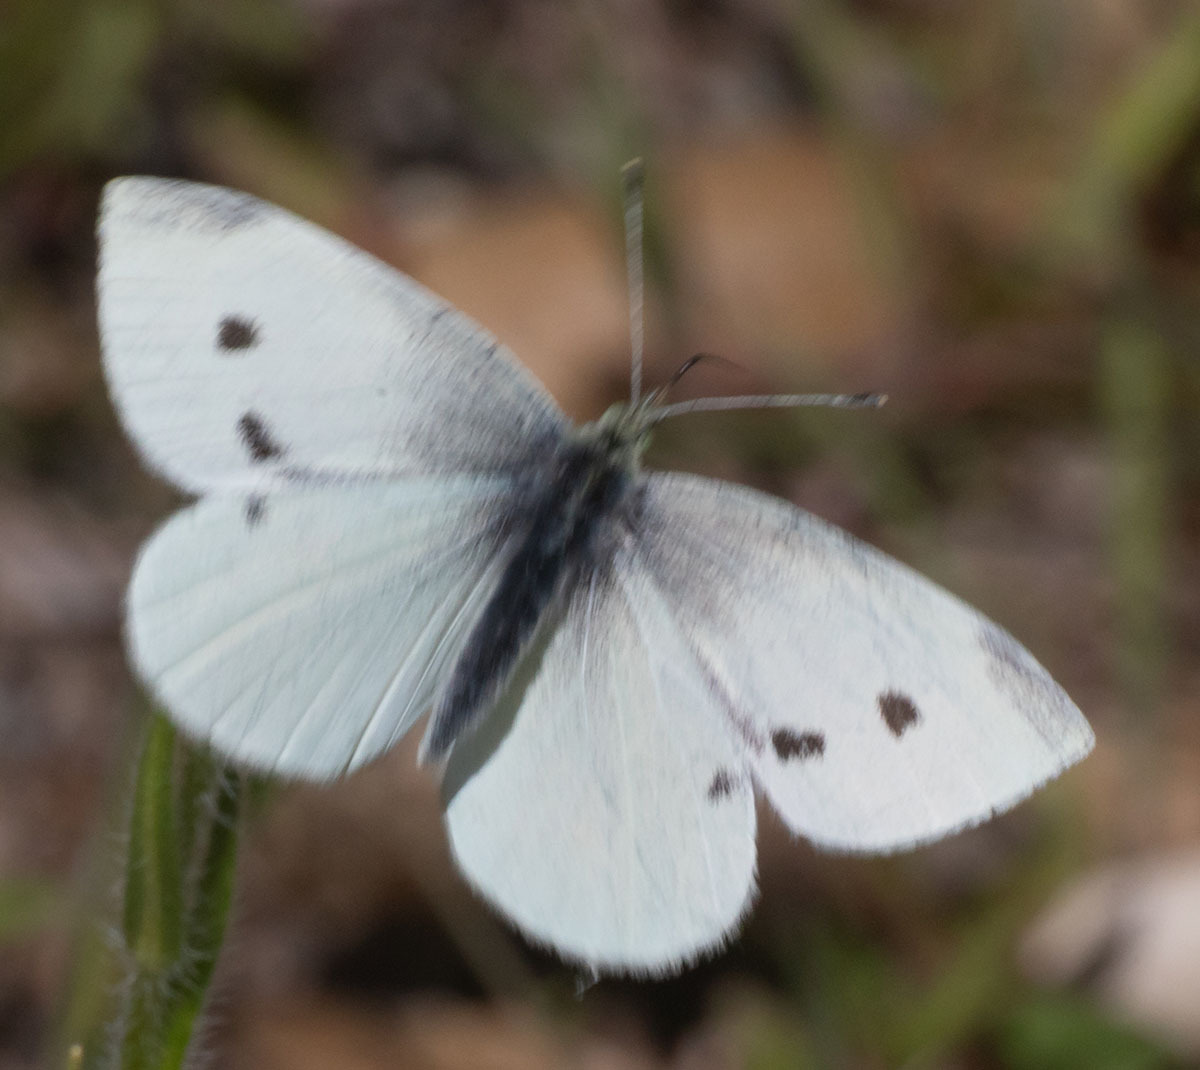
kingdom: Animalia
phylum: Arthropoda
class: Insecta
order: Lepidoptera
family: Pieridae
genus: Pieris
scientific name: Pieris rapae
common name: Small white
